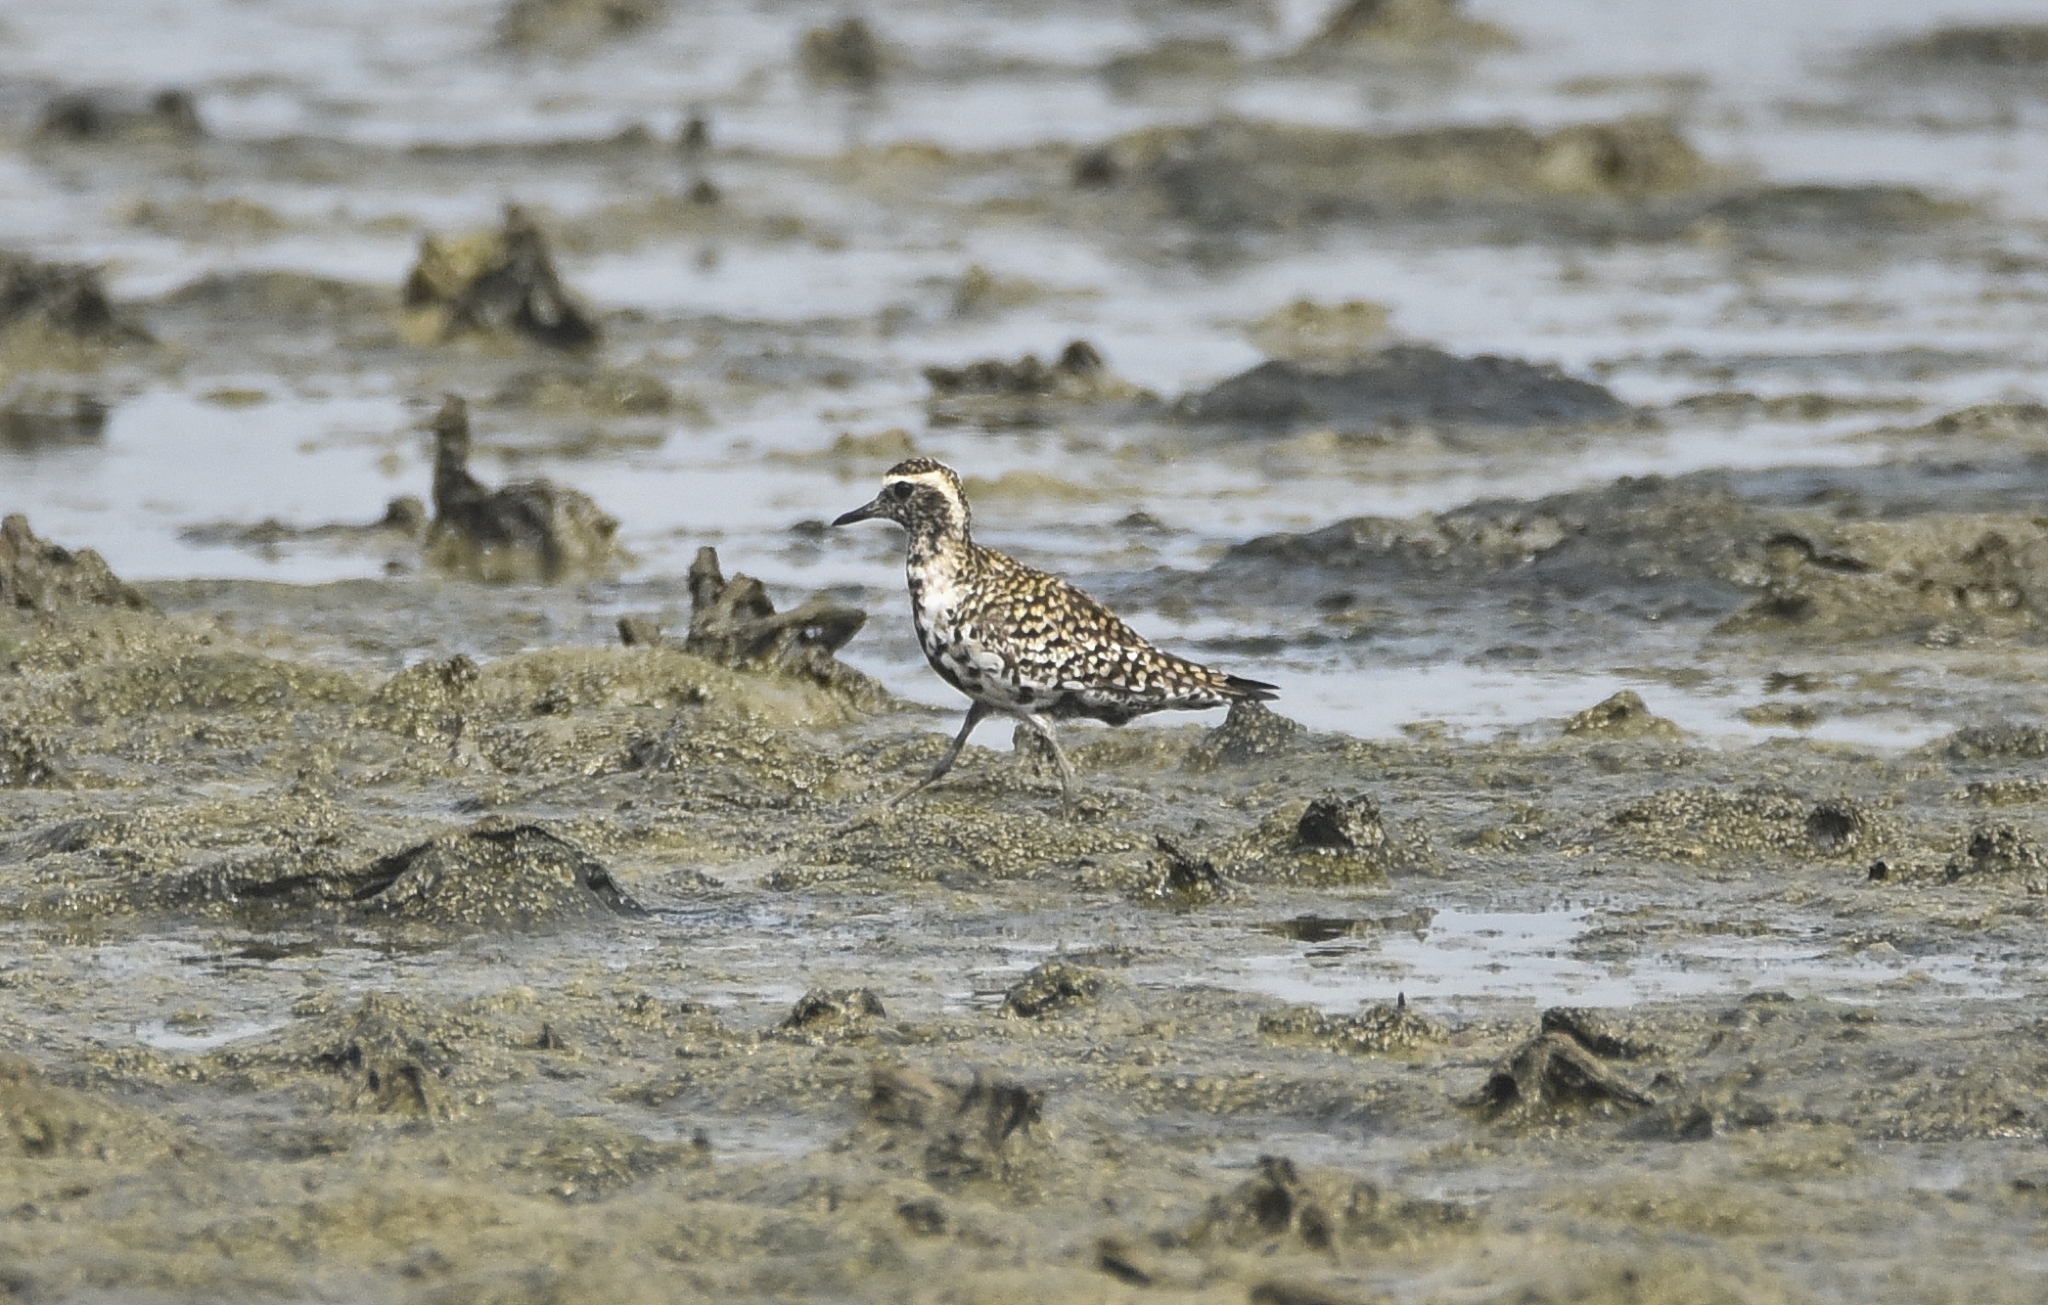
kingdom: Animalia
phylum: Chordata
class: Aves
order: Charadriiformes
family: Charadriidae
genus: Pluvialis
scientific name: Pluvialis fulva
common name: Pacific golden plover
